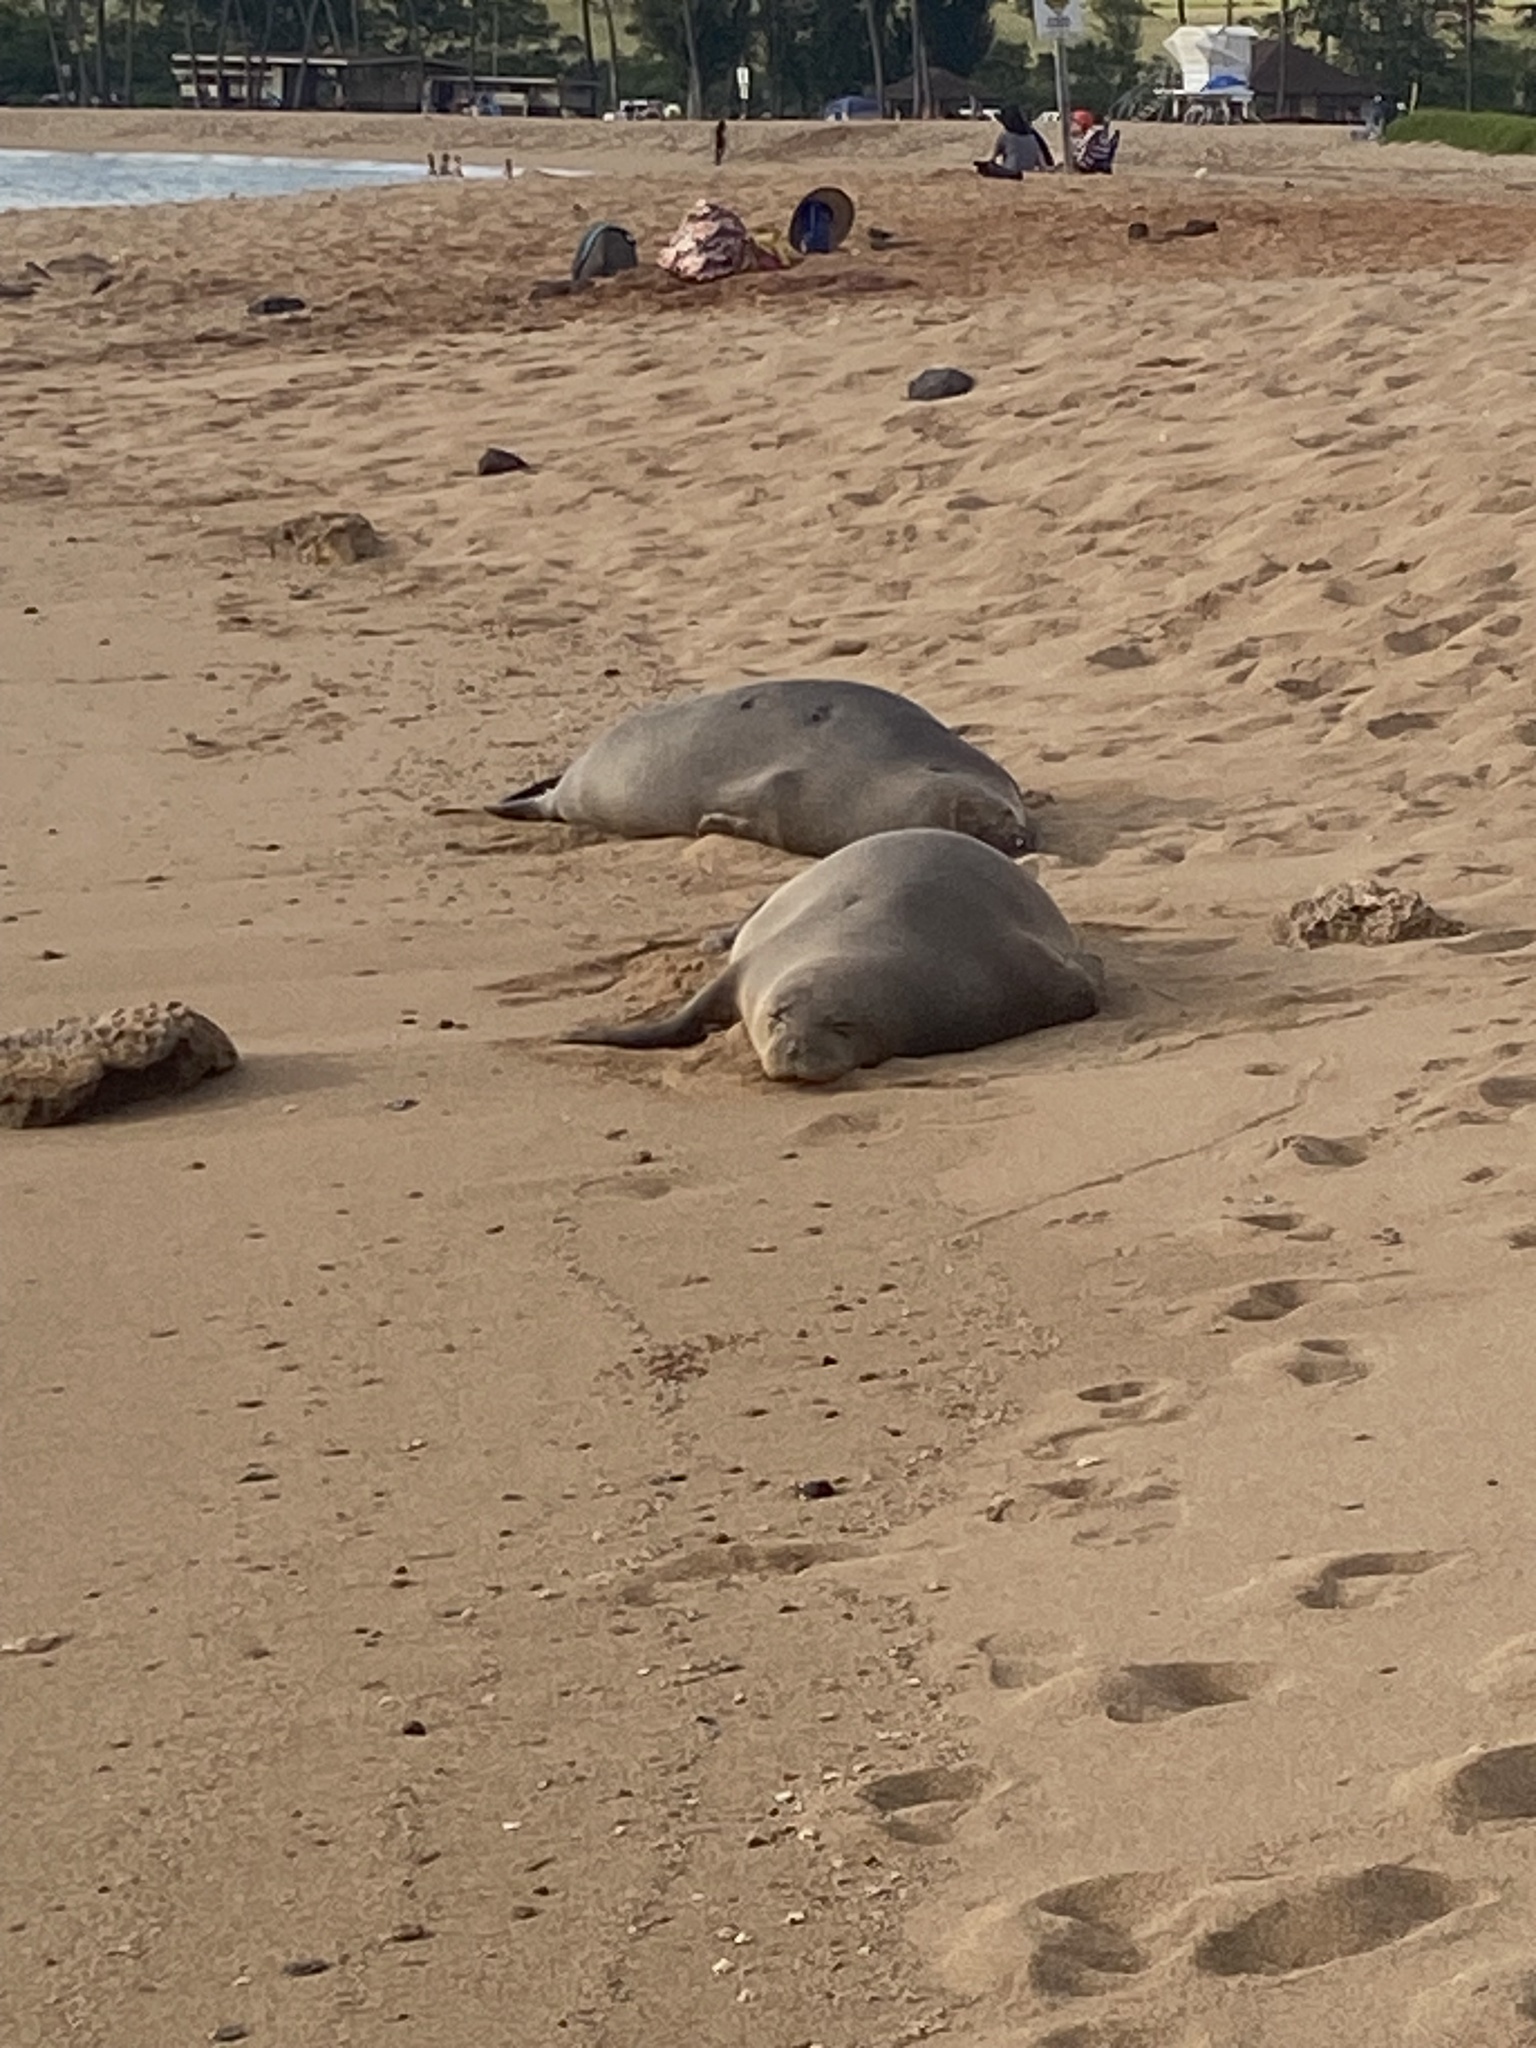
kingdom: Animalia
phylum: Chordata
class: Mammalia
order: Carnivora
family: Phocidae
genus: Neomonachus
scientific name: Neomonachus schauinslandi
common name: Hawaiian monk seal
